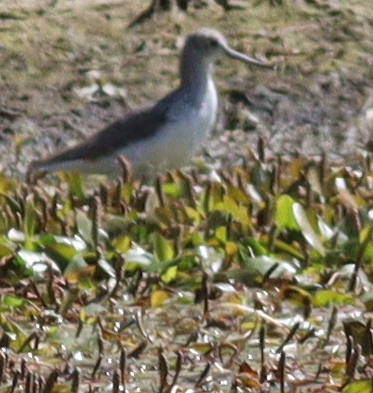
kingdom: Animalia
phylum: Chordata
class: Aves
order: Charadriiformes
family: Scolopacidae
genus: Tringa
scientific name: Tringa nebularia
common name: Common greenshank
